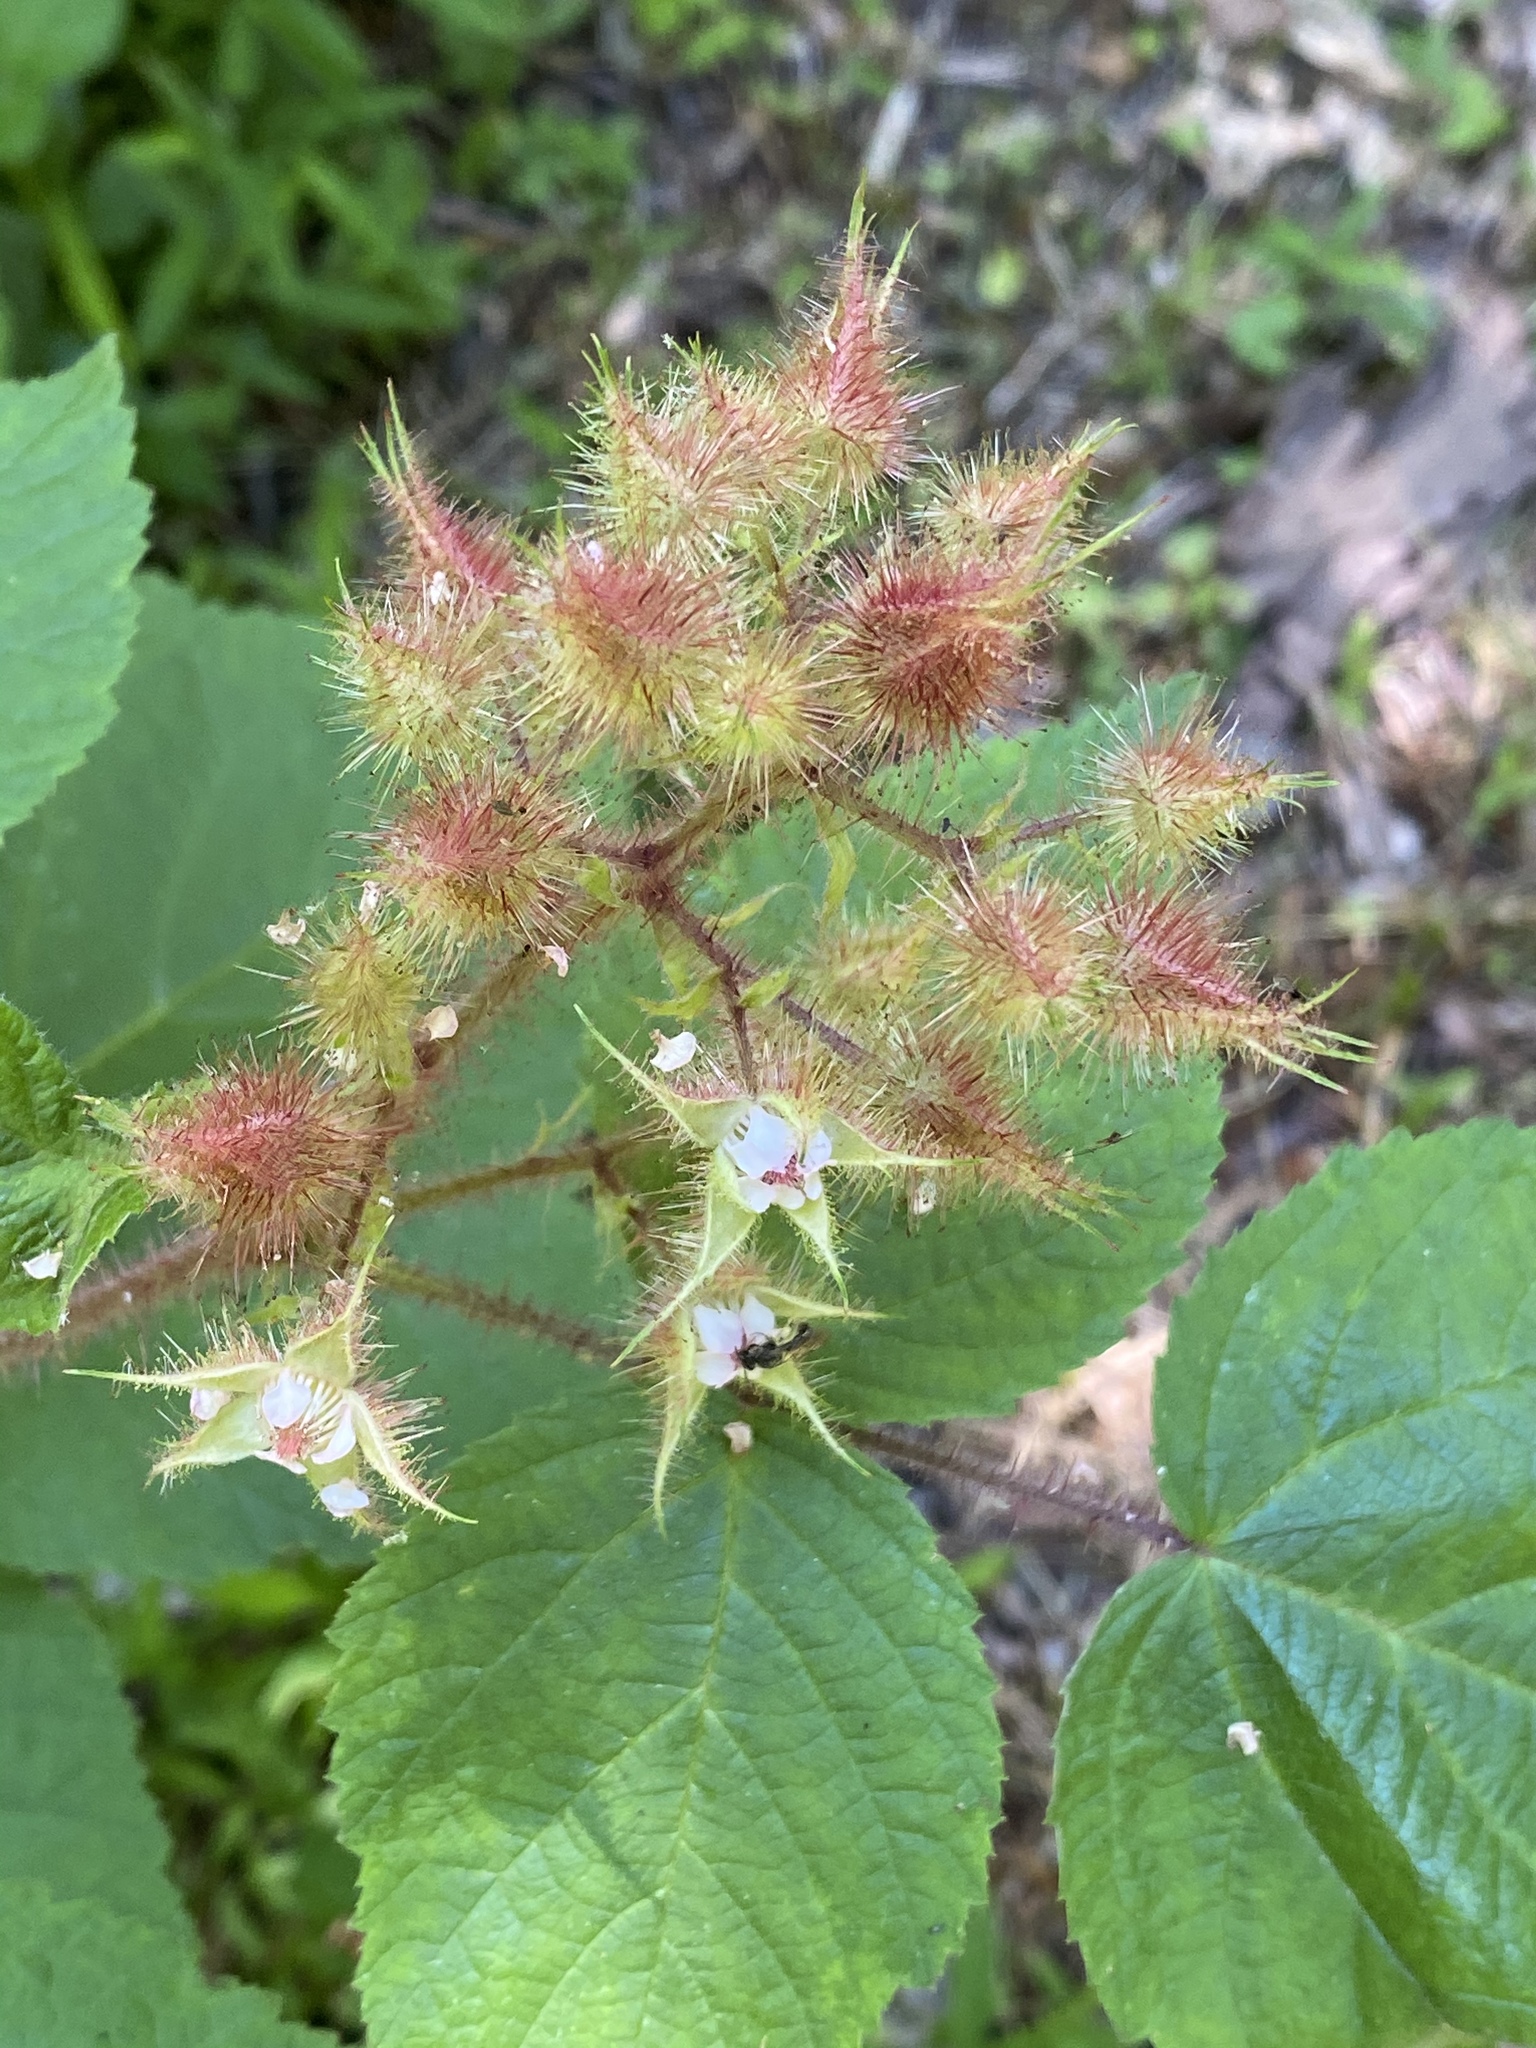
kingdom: Plantae
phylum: Tracheophyta
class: Magnoliopsida
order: Rosales
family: Rosaceae
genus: Rubus
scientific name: Rubus phoenicolasius
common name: Japanese wineberry
